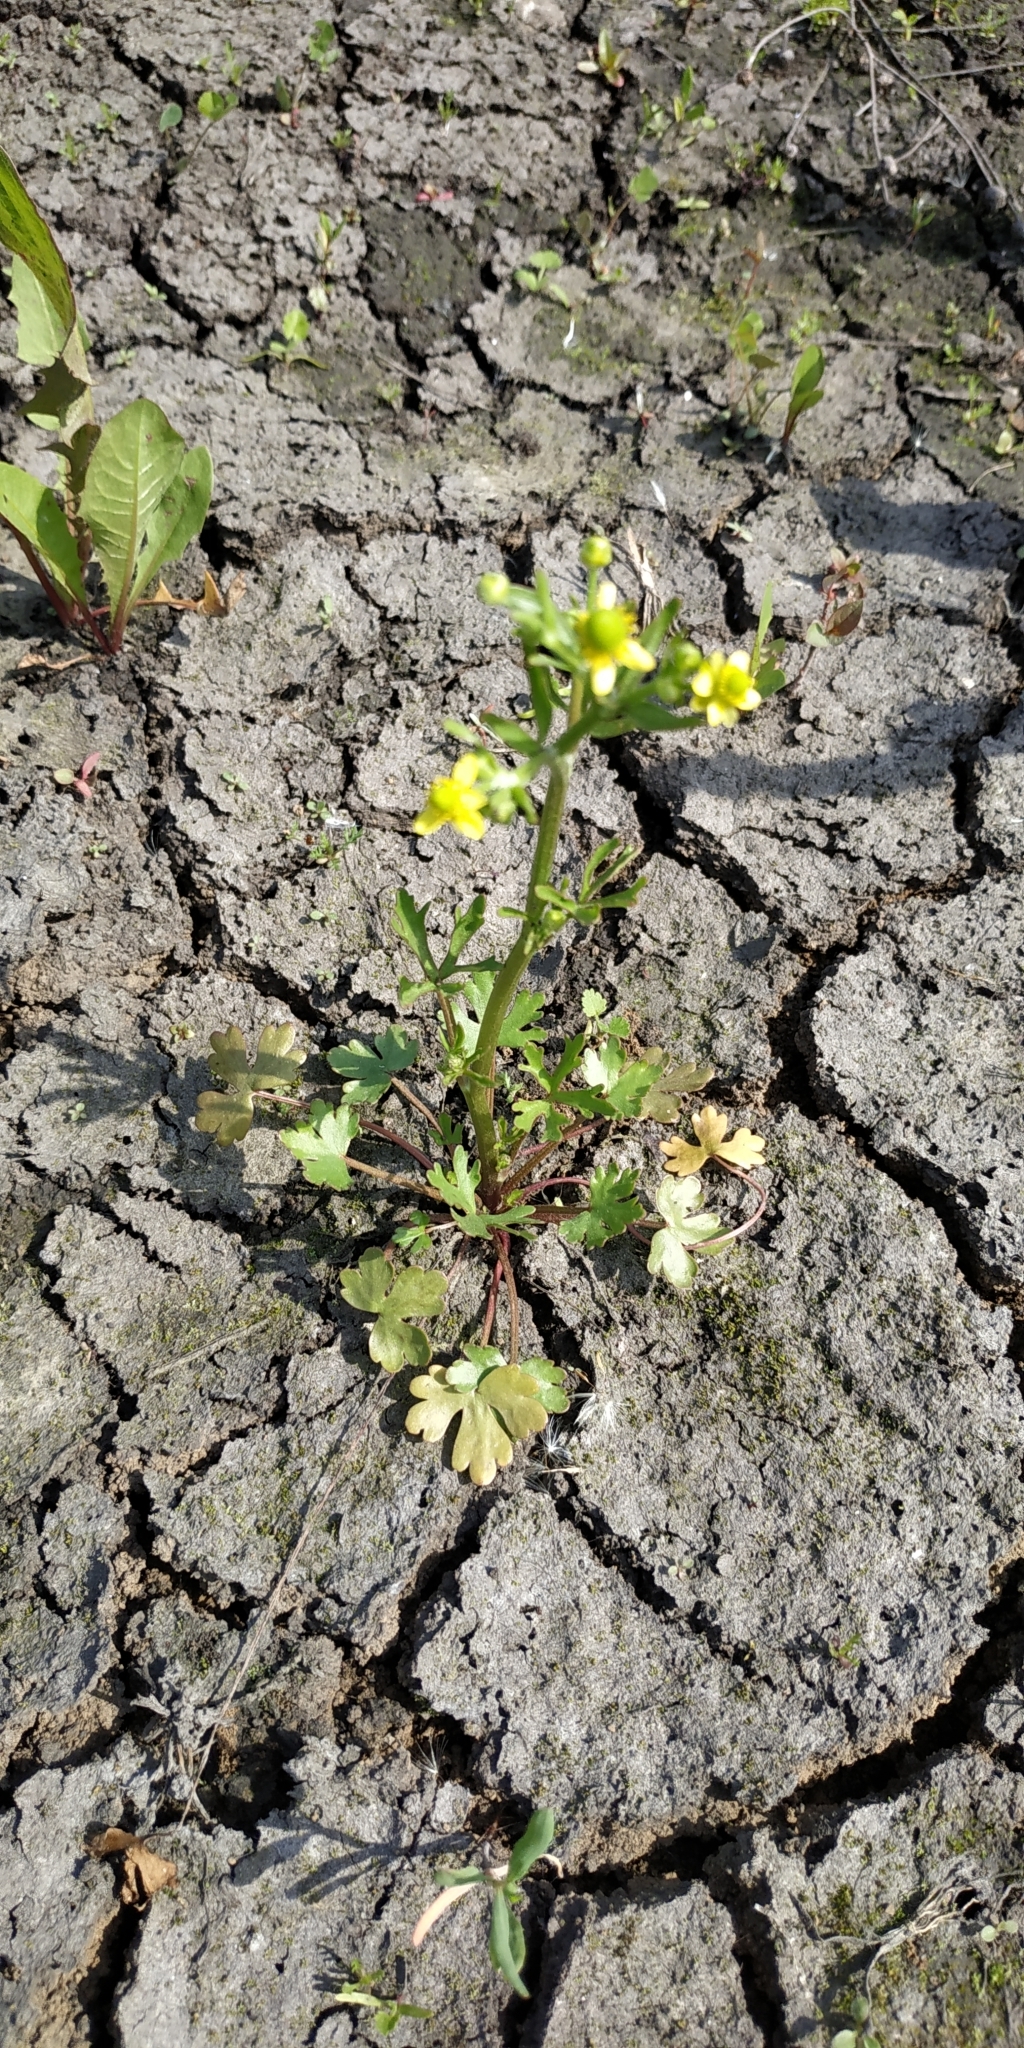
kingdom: Plantae
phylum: Tracheophyta
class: Magnoliopsida
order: Ranunculales
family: Ranunculaceae
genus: Ranunculus
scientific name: Ranunculus sceleratus
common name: Celery-leaved buttercup
